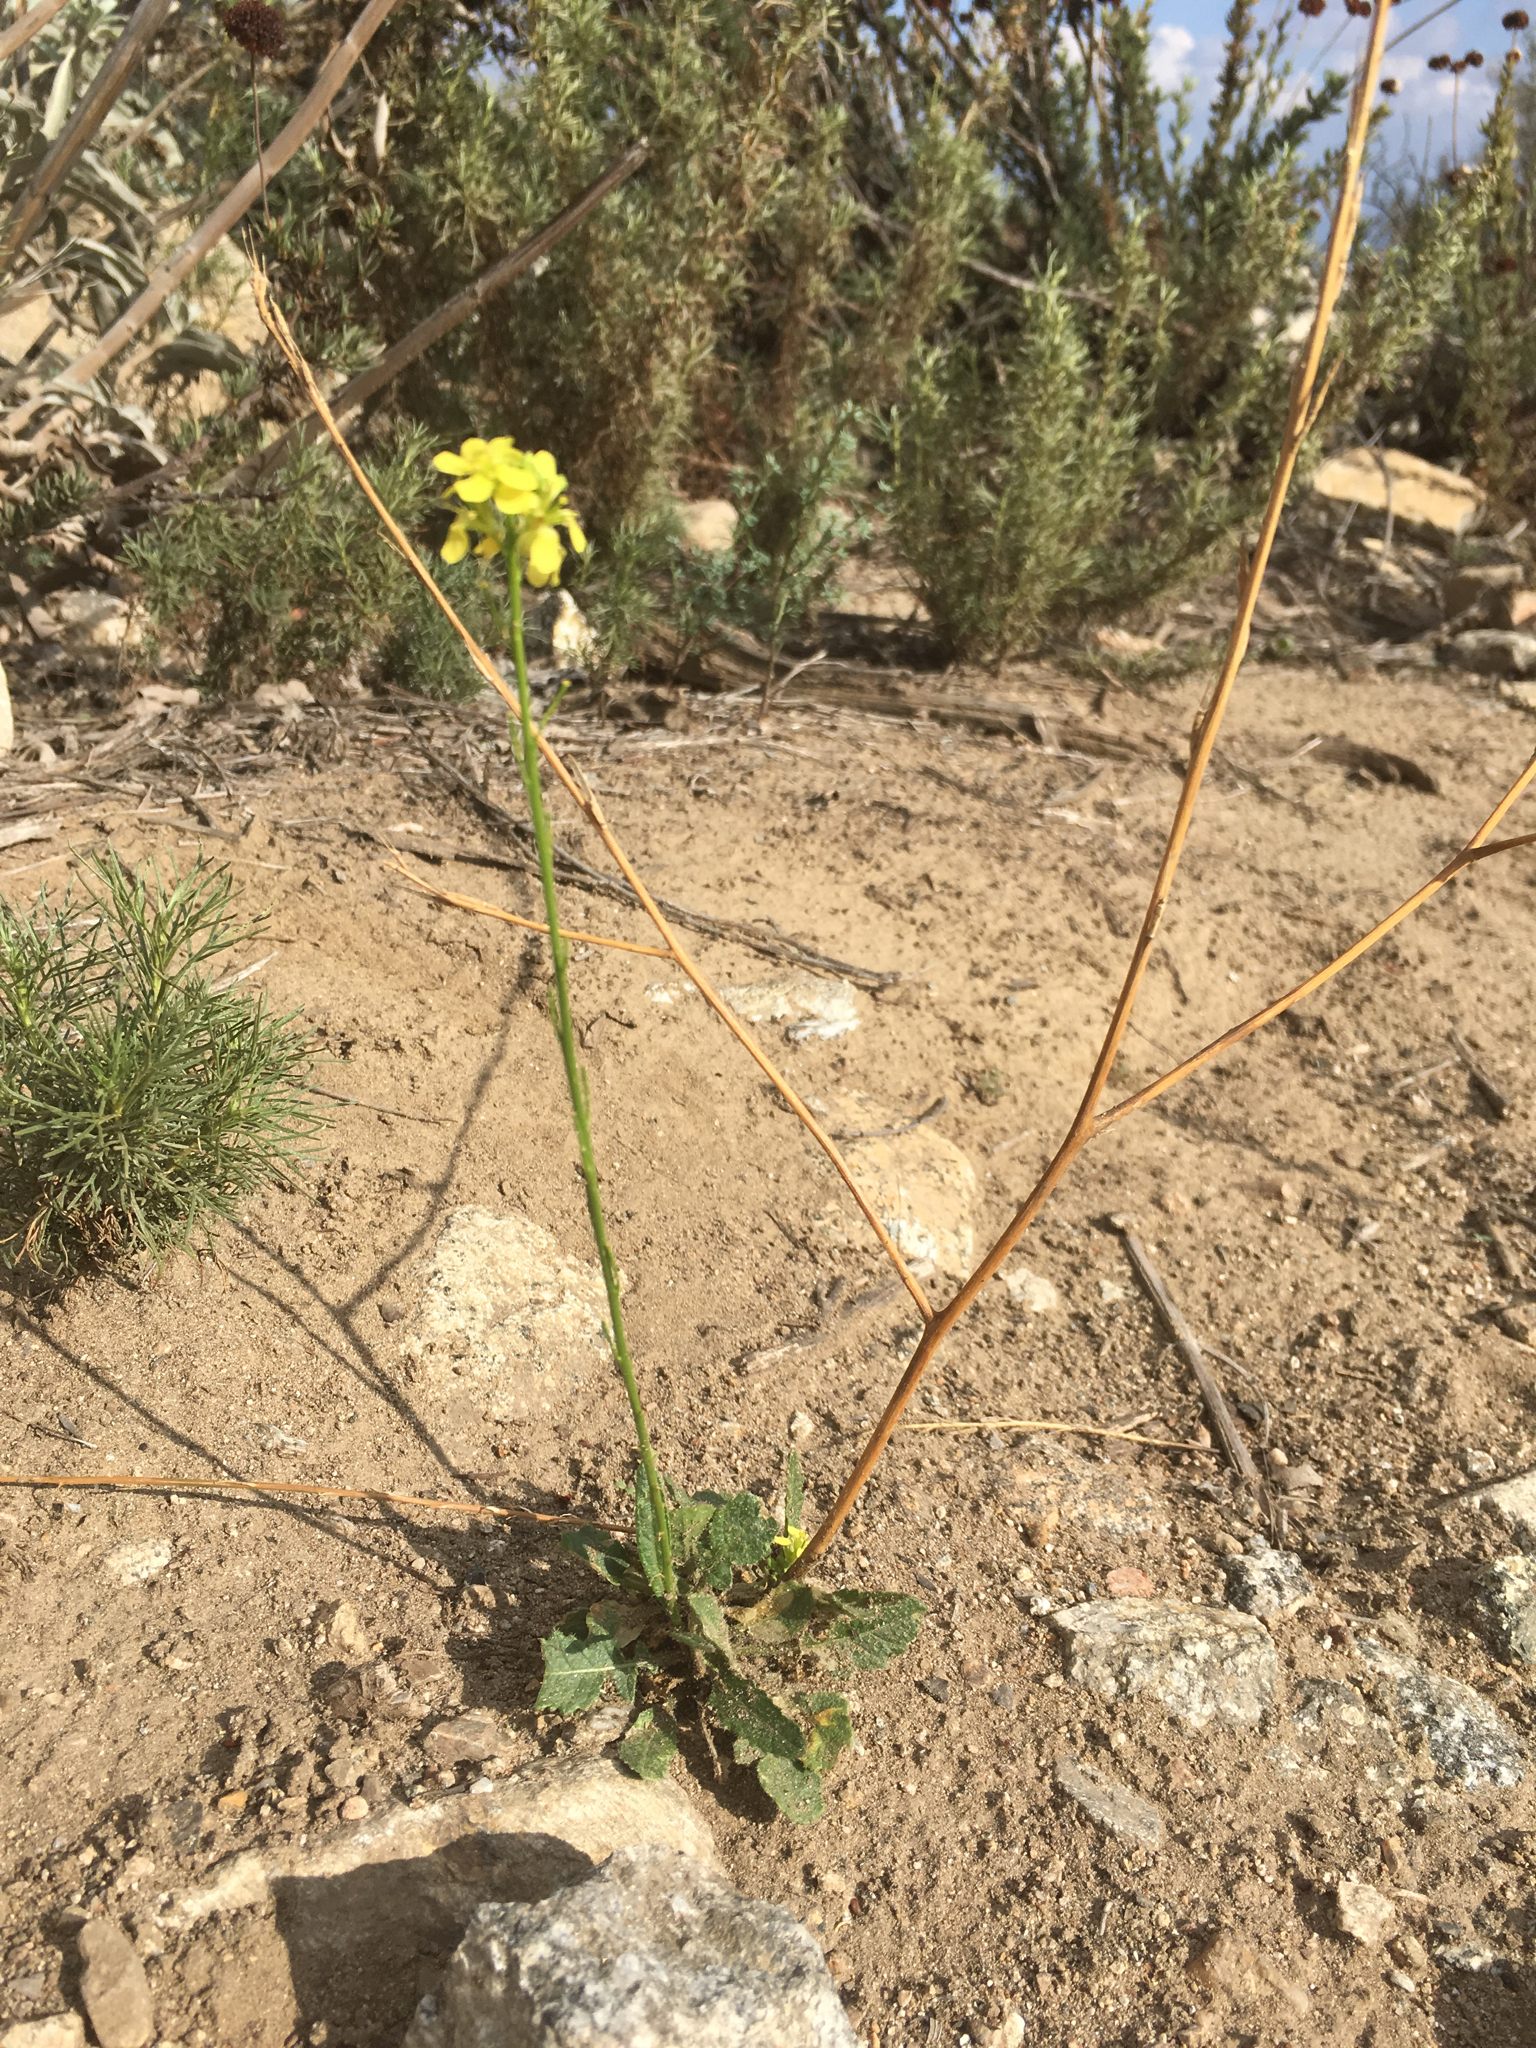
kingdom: Plantae
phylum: Tracheophyta
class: Magnoliopsida
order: Brassicales
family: Brassicaceae
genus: Hirschfeldia
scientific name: Hirschfeldia incana
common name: Hoary mustard
